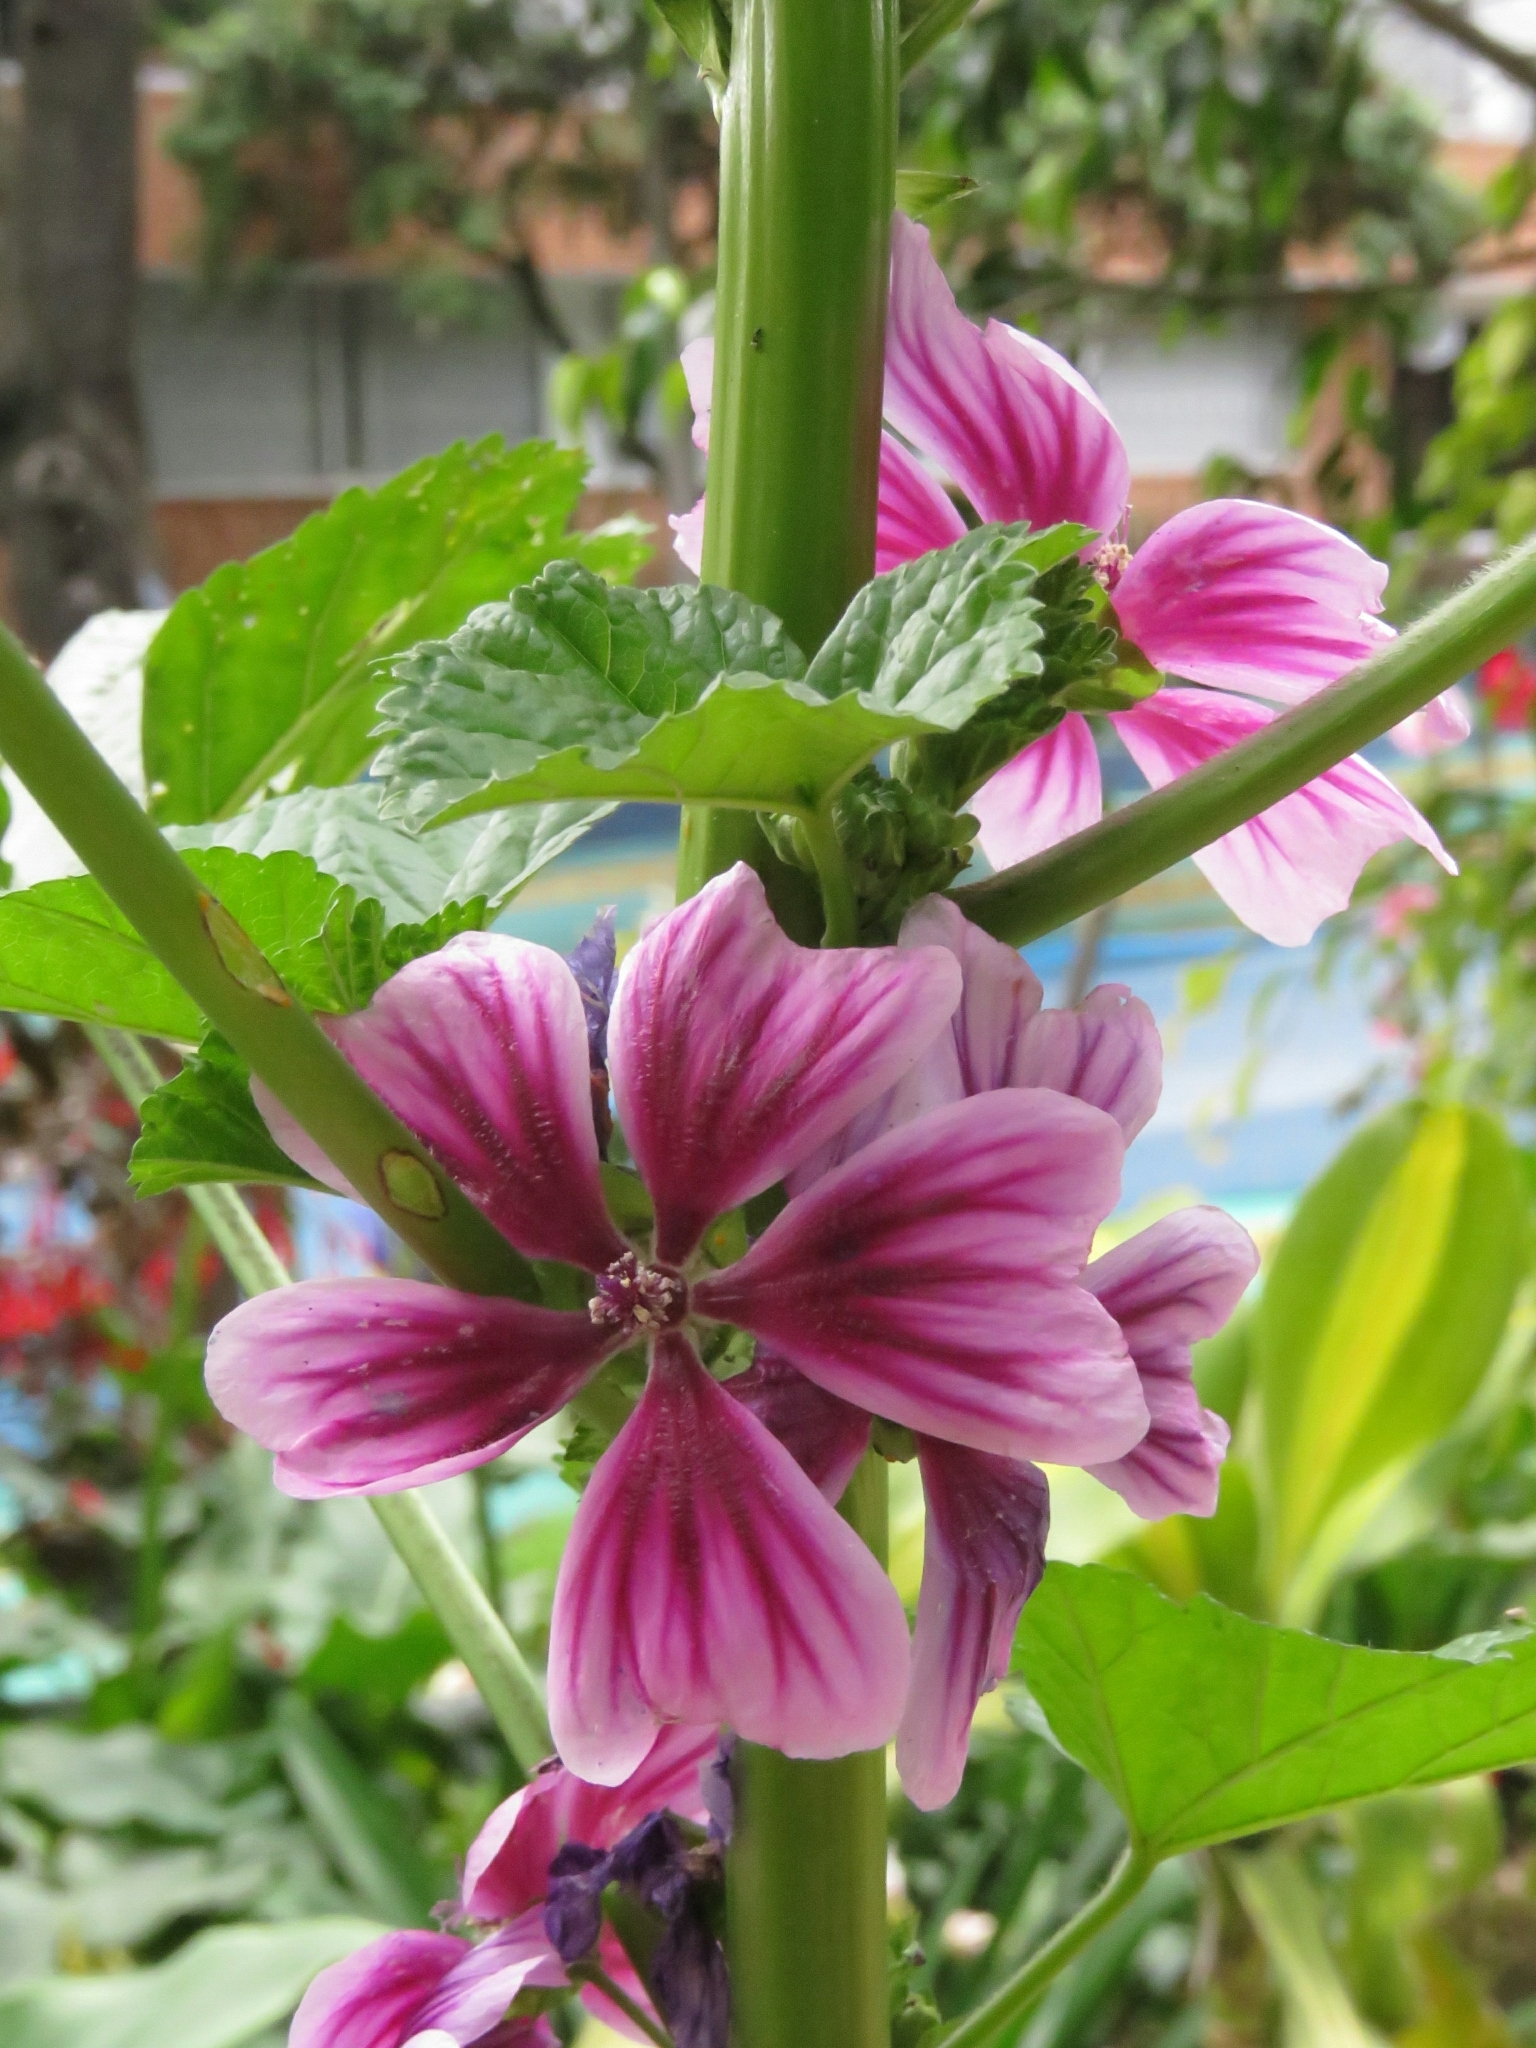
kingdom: Plantae
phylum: Tracheophyta
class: Magnoliopsida
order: Malvales
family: Malvaceae
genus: Malva
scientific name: Malva sylvestris
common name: Common mallow
